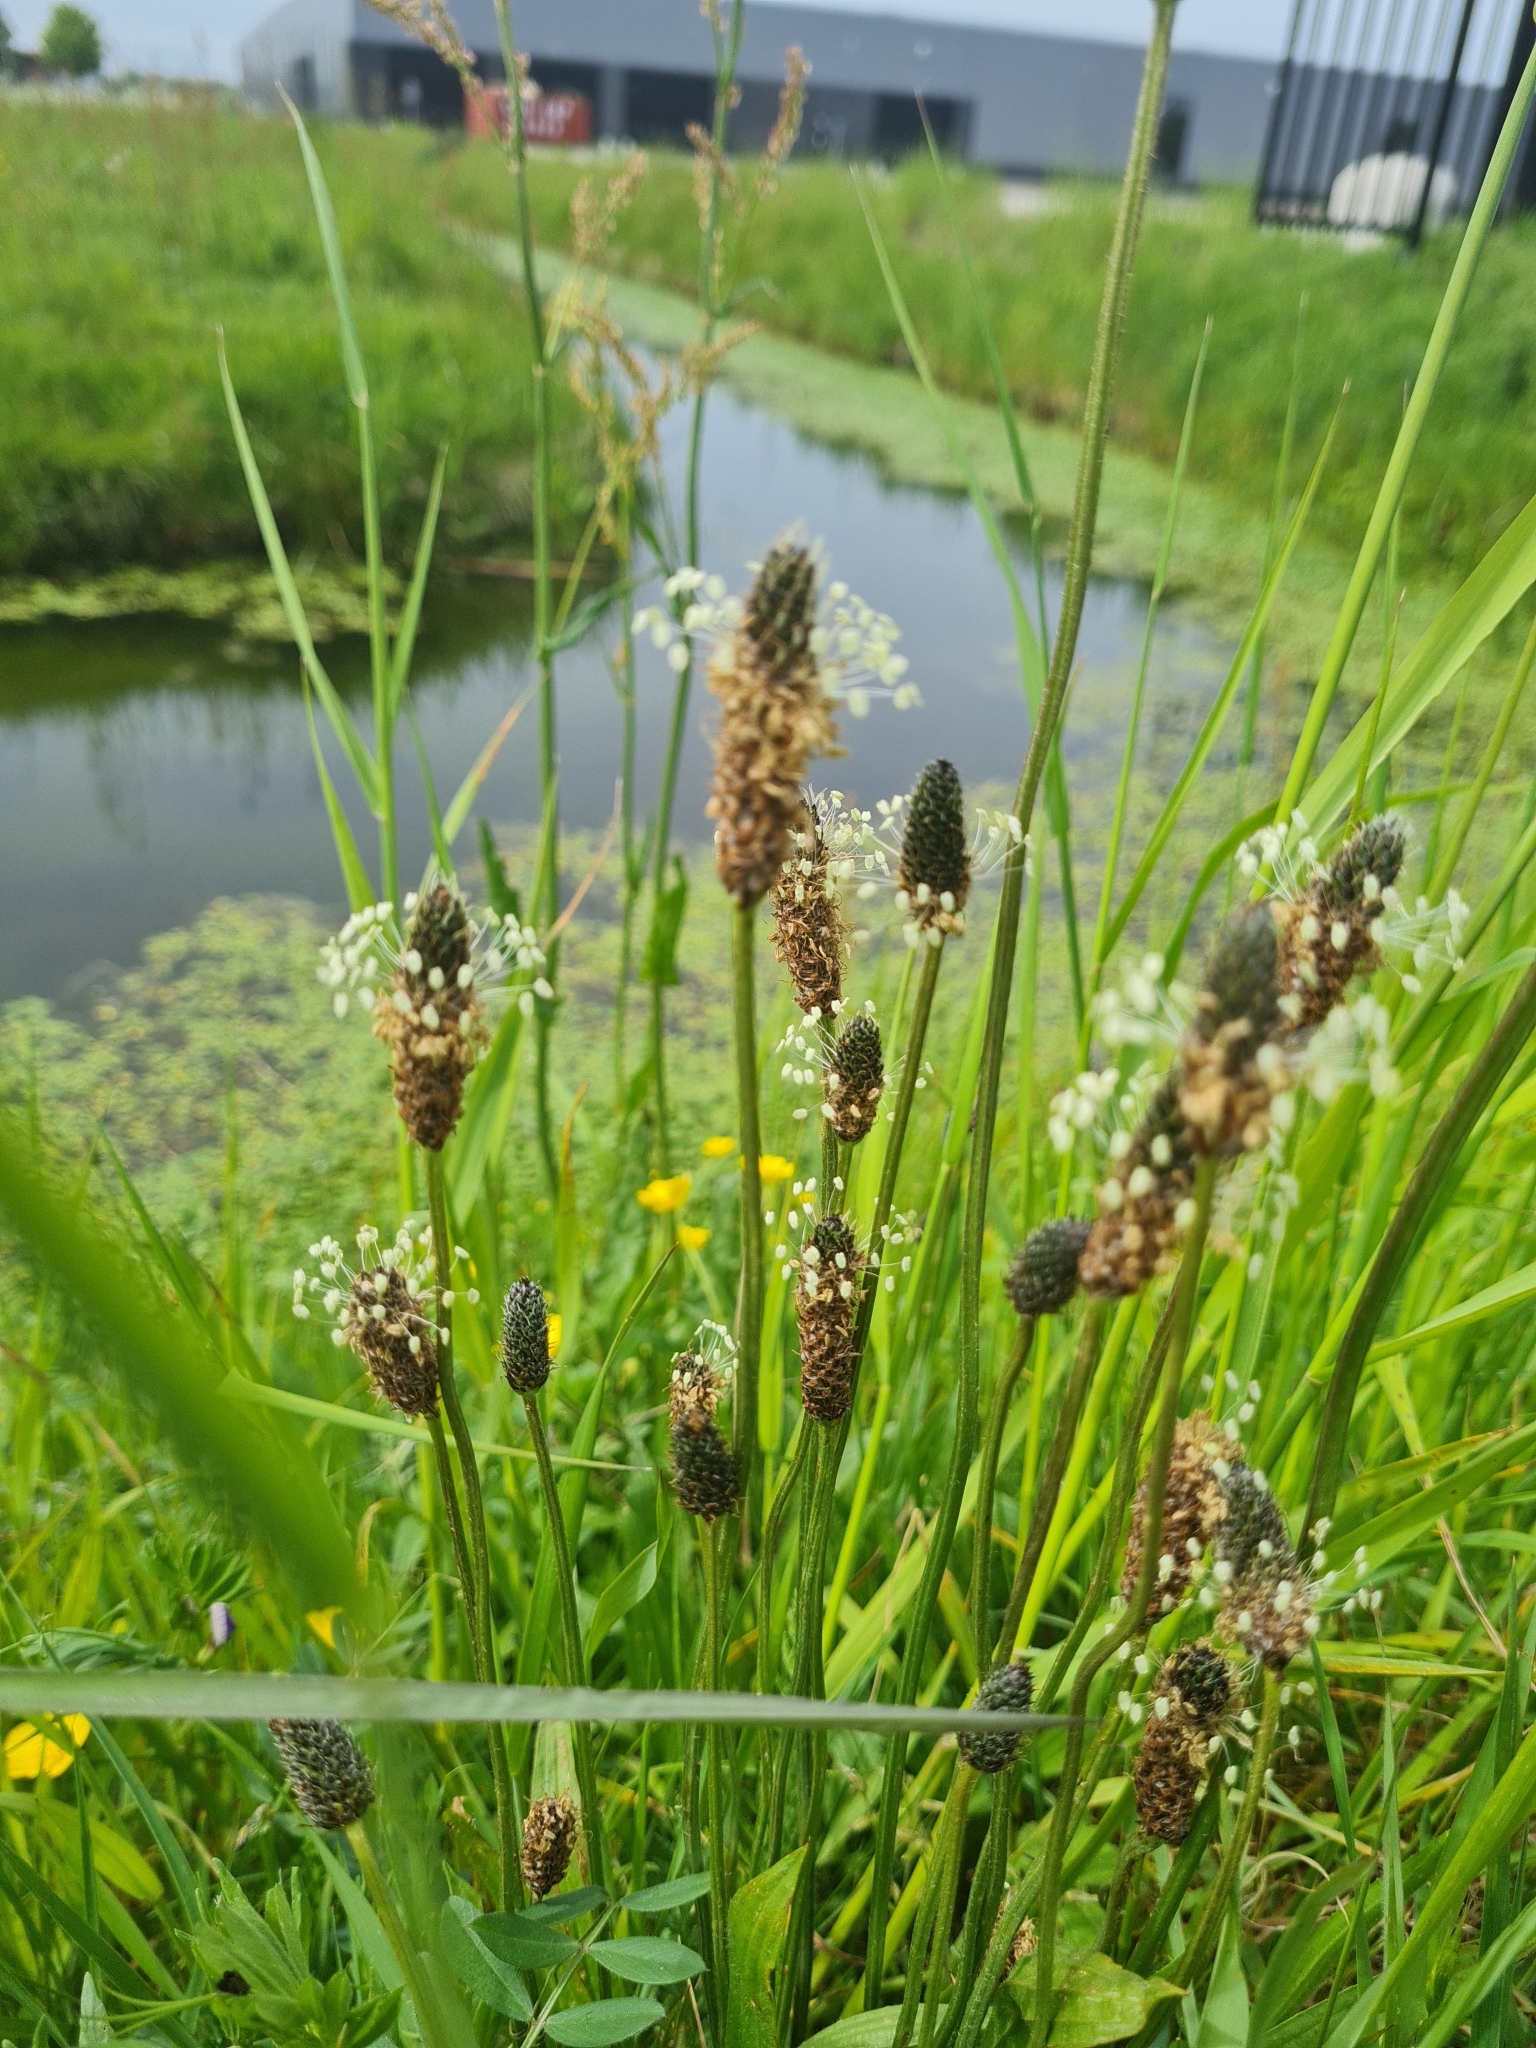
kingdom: Plantae
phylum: Tracheophyta
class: Magnoliopsida
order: Lamiales
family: Plantaginaceae
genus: Plantago
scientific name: Plantago lanceolata
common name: Ribwort plantain
